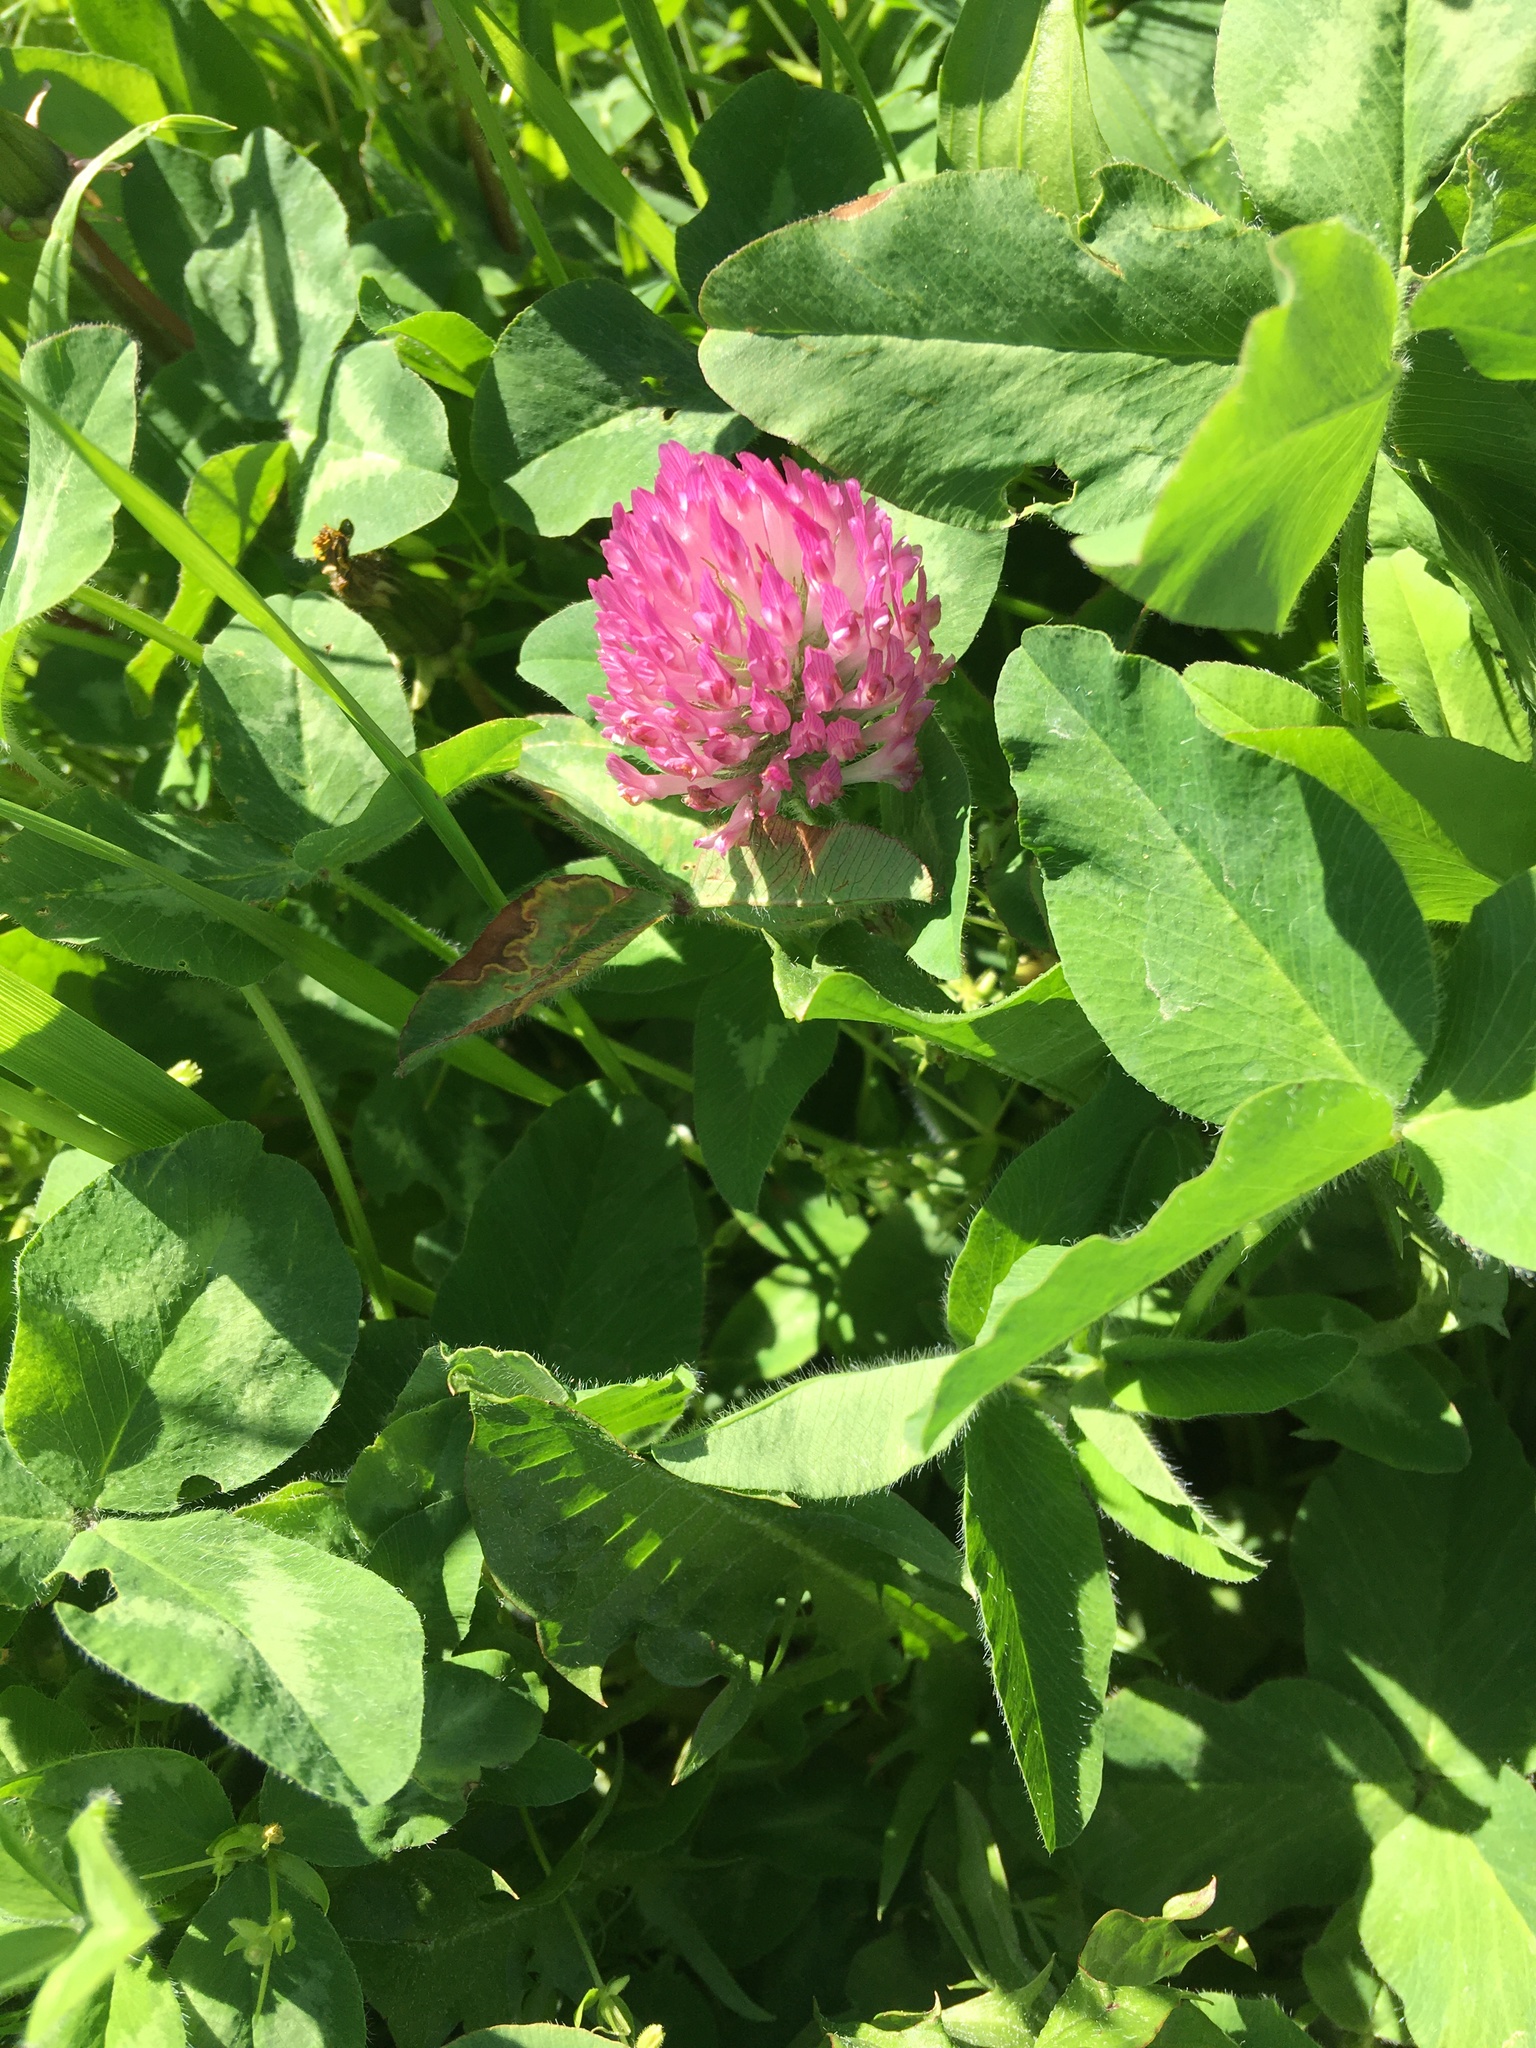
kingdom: Plantae
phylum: Tracheophyta
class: Magnoliopsida
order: Fabales
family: Fabaceae
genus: Trifolium
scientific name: Trifolium pratense
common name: Red clover
